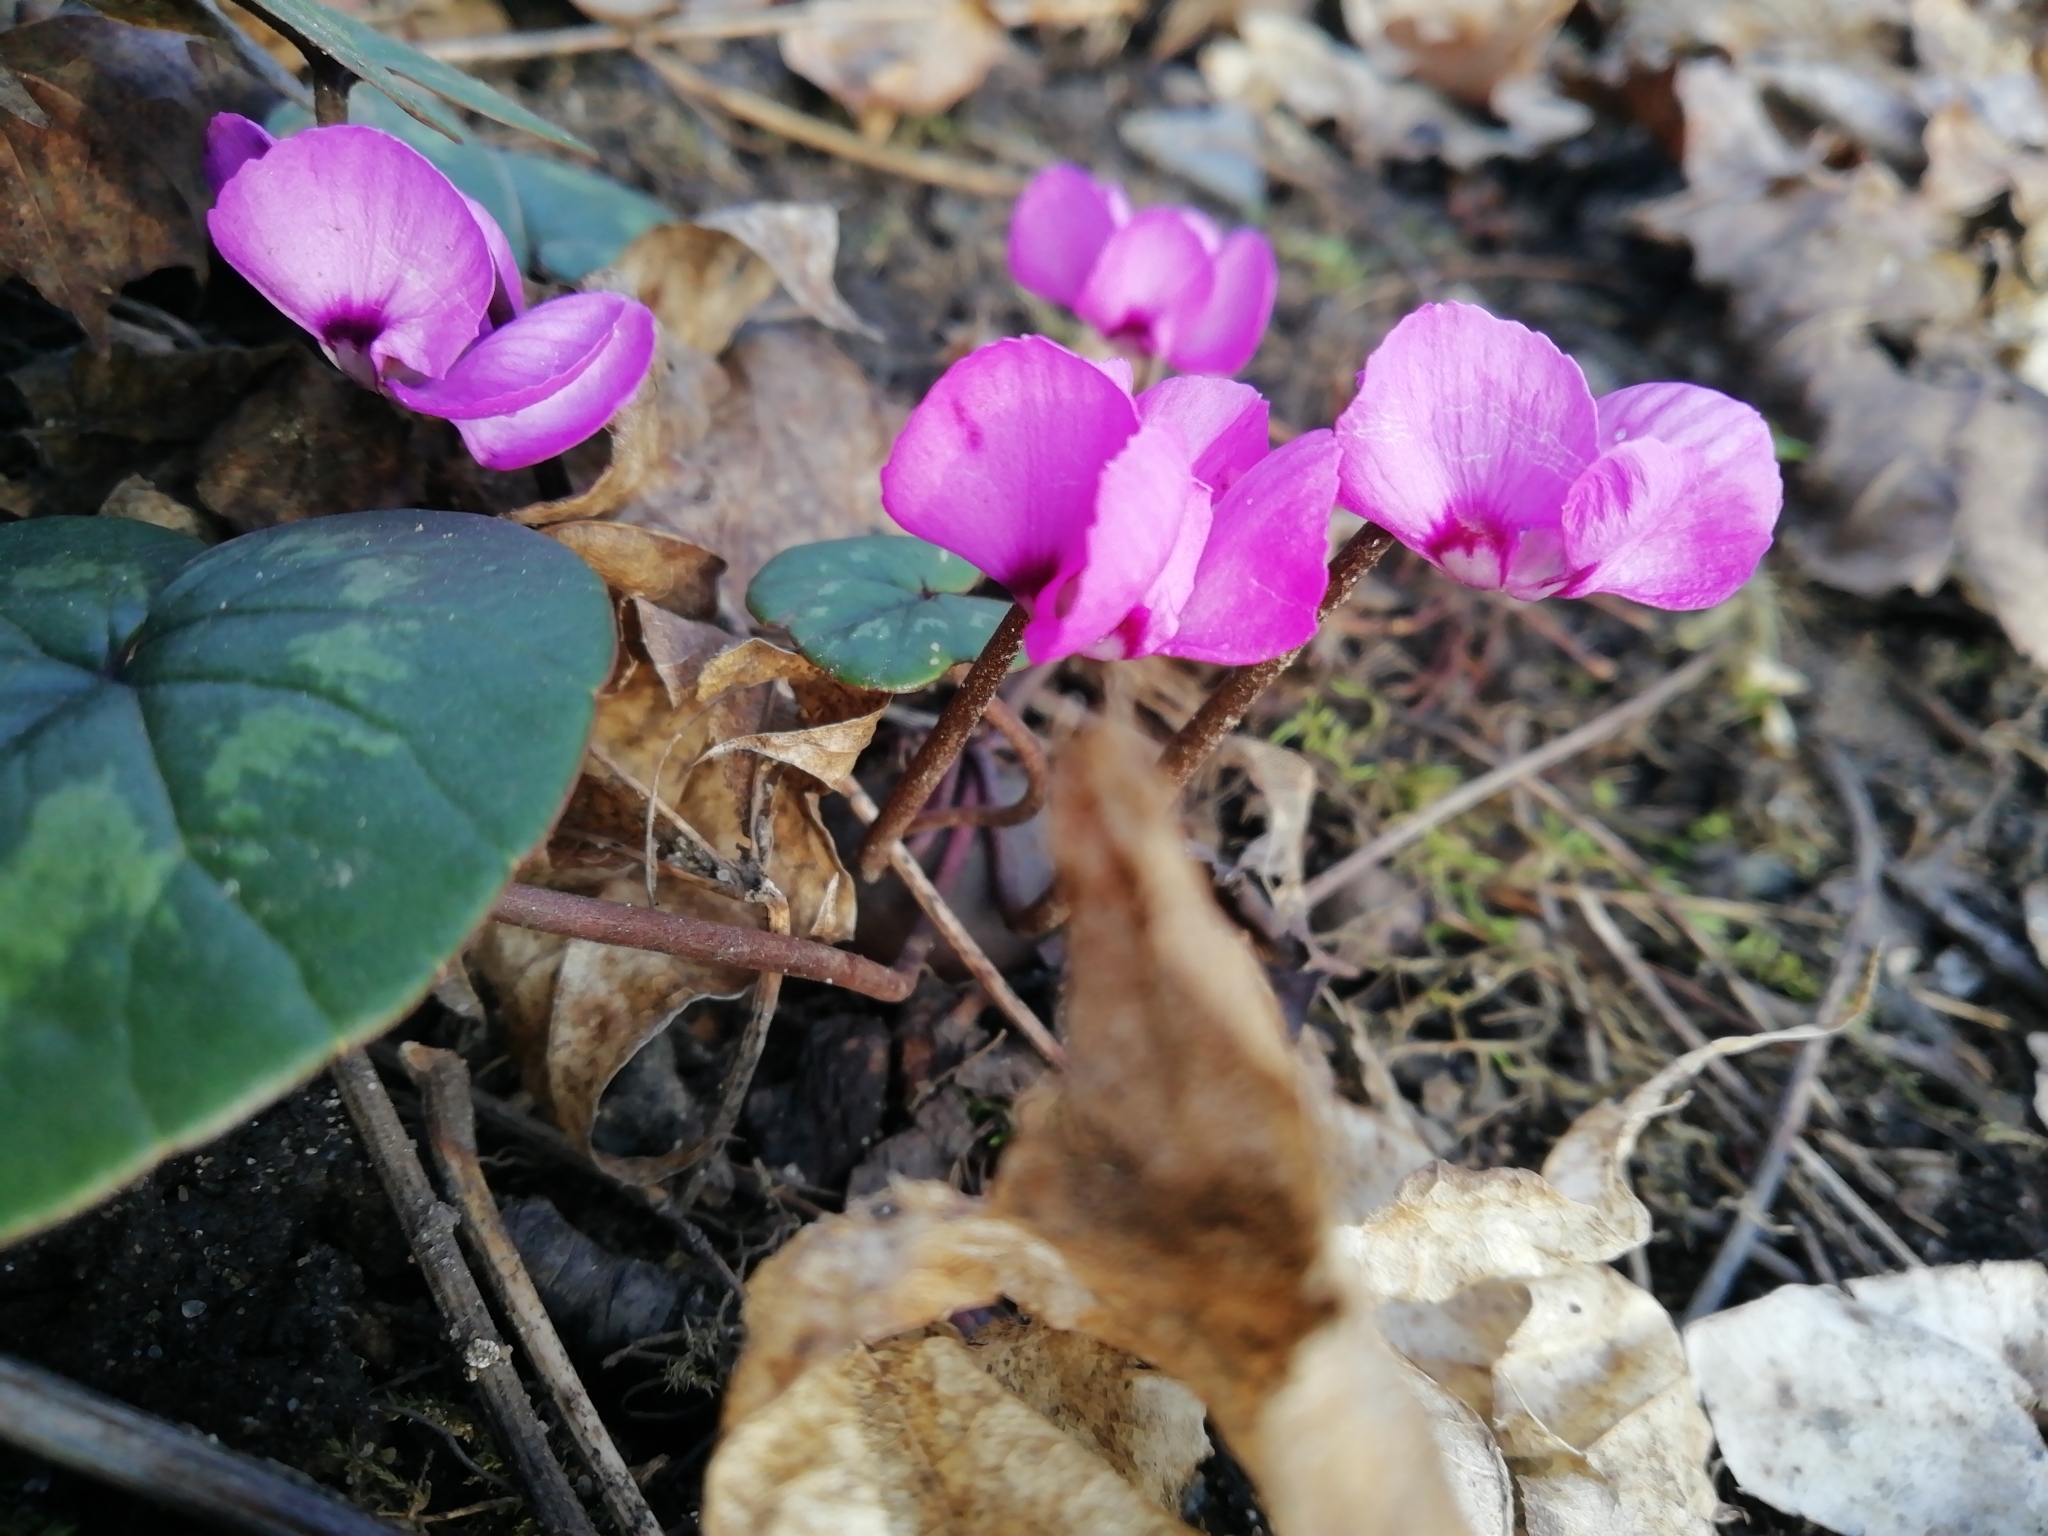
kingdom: Plantae
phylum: Tracheophyta
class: Magnoliopsida
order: Ericales
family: Primulaceae
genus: Cyclamen
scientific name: Cyclamen coum
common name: Eastern sowbread
